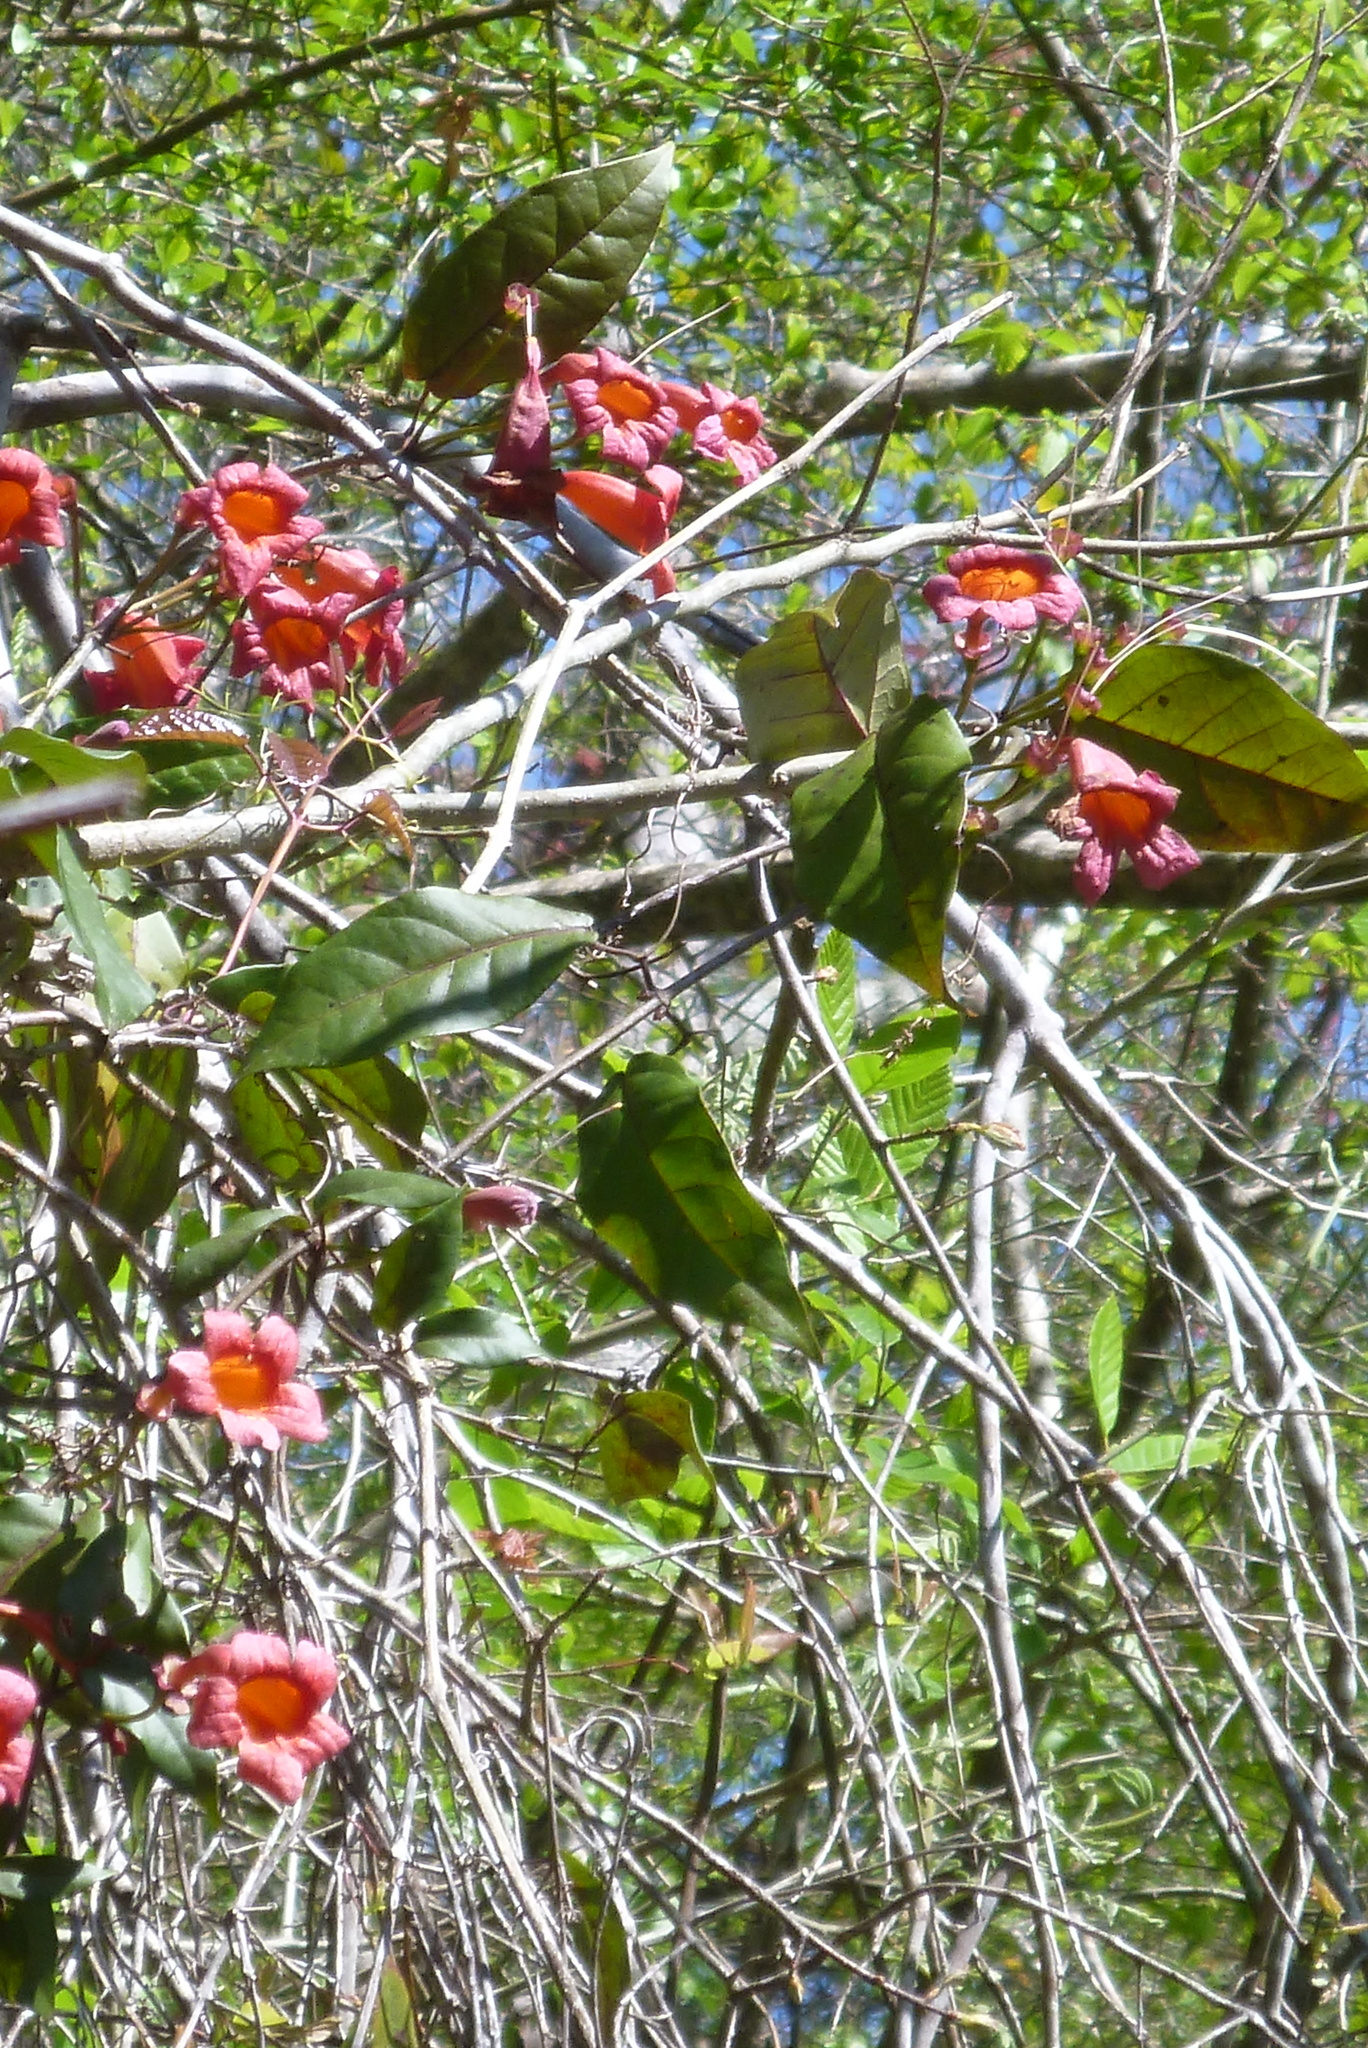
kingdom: Plantae
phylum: Tracheophyta
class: Magnoliopsida
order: Lamiales
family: Bignoniaceae
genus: Bignonia
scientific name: Bignonia capreolata
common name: Crossvine
